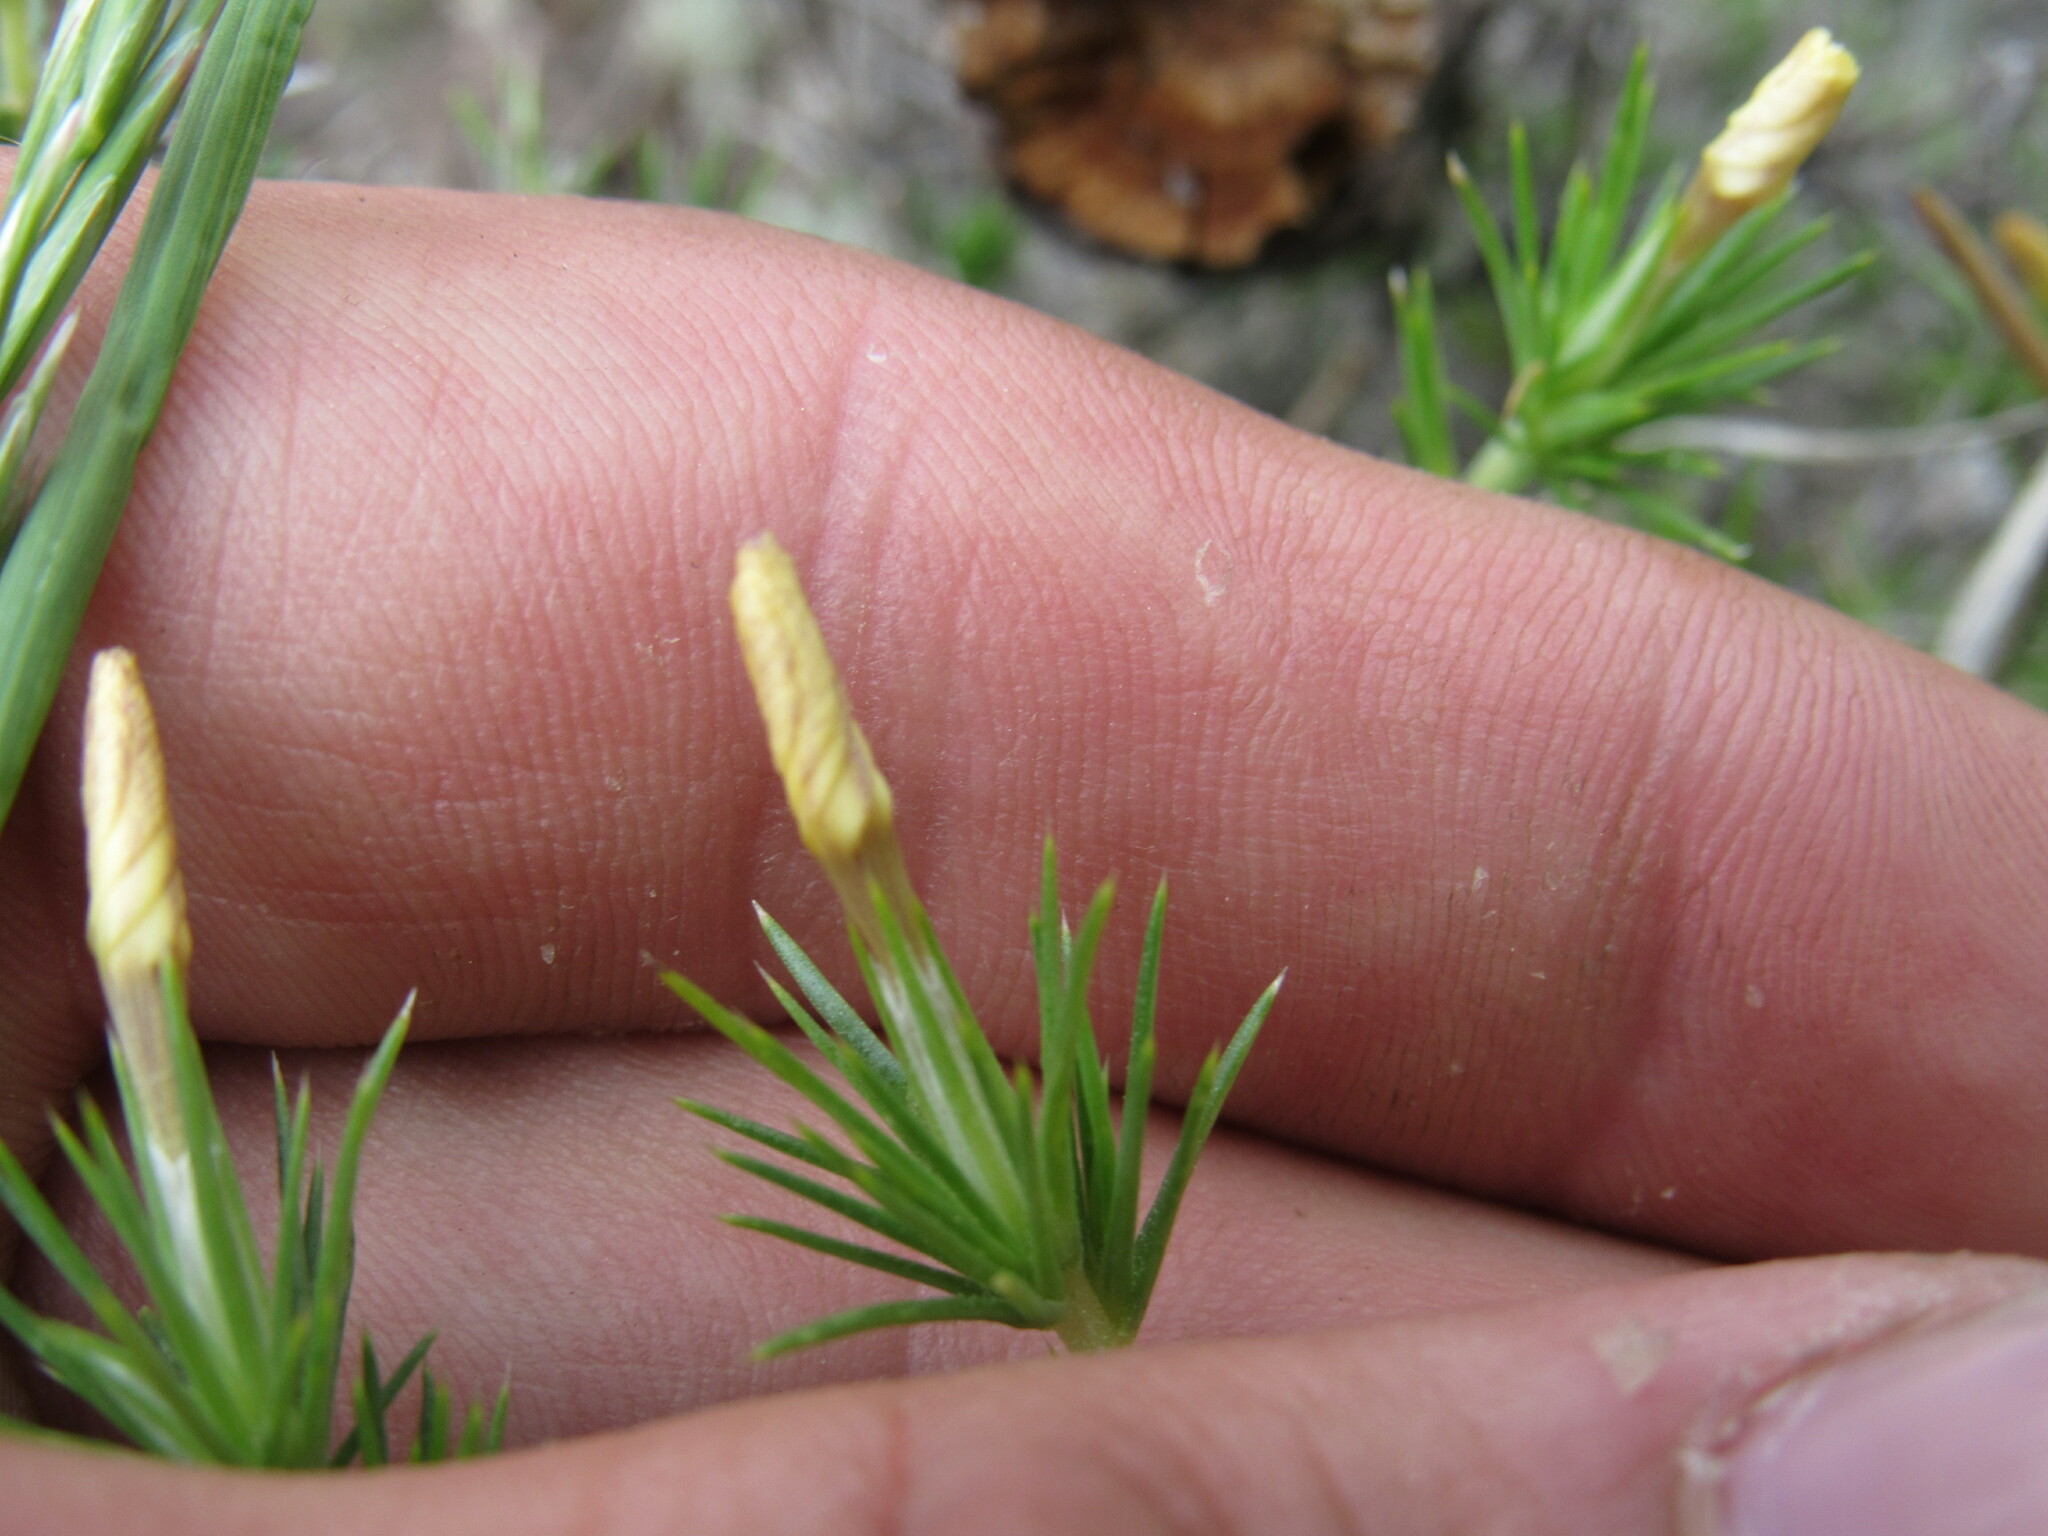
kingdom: Plantae
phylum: Tracheophyta
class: Magnoliopsida
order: Ericales
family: Polemoniaceae
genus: Linanthus
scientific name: Linanthus pungens
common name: Granite prickly phlox
